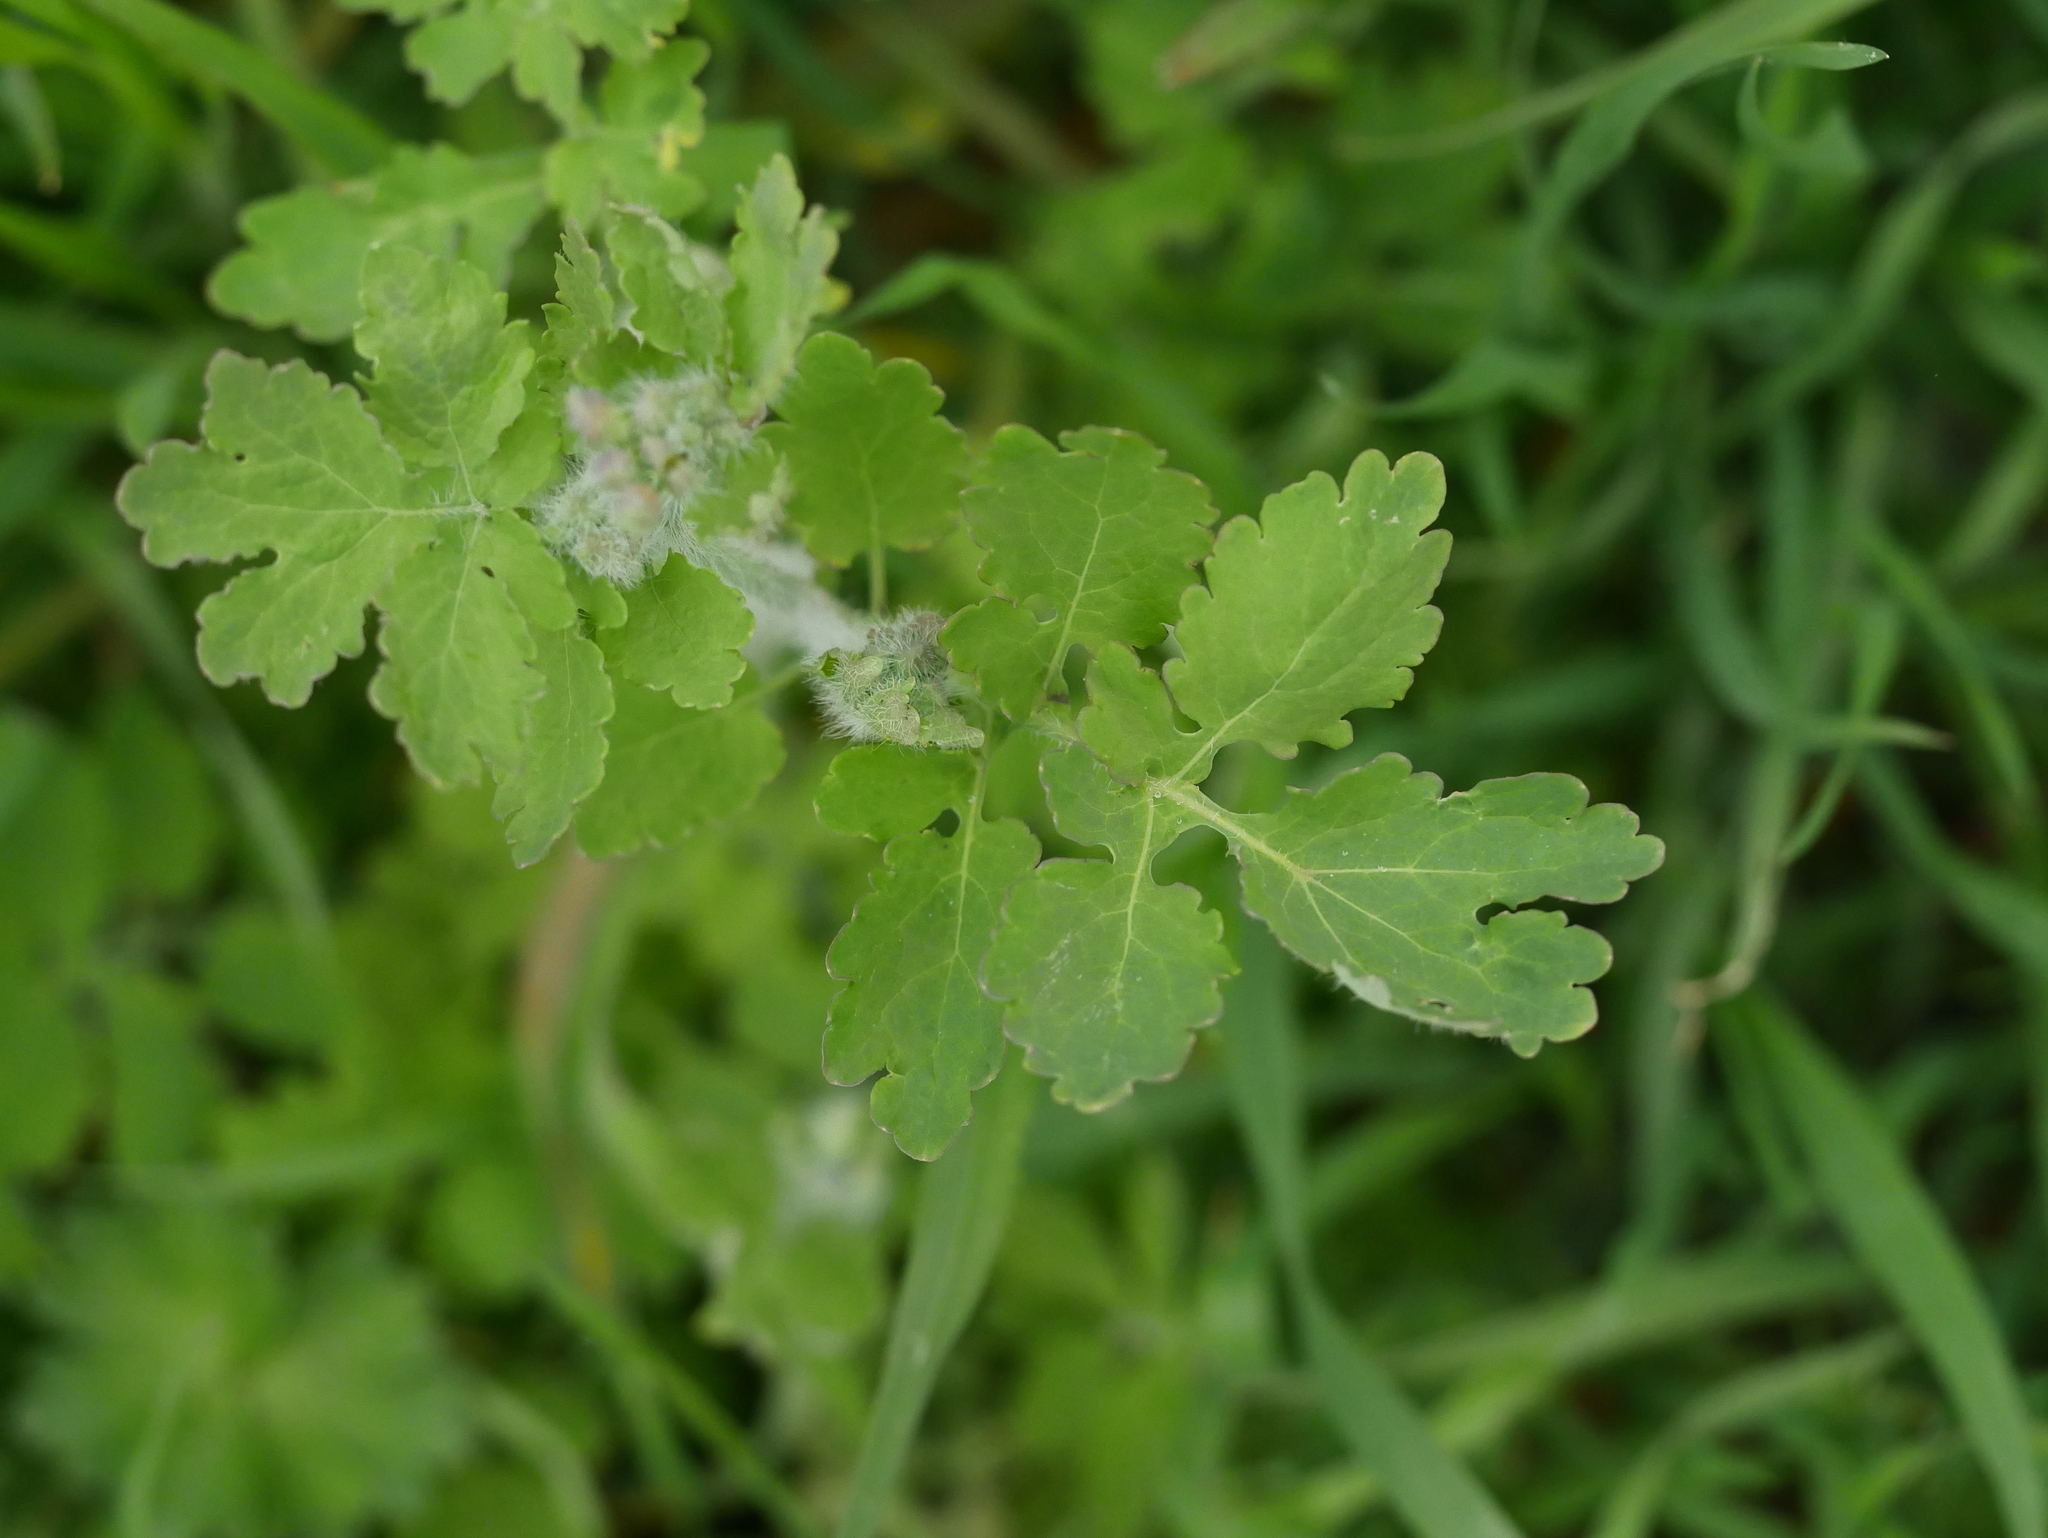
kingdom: Plantae
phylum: Tracheophyta
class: Magnoliopsida
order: Ranunculales
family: Papaveraceae
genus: Chelidonium
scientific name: Chelidonium majus
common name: Greater celandine
